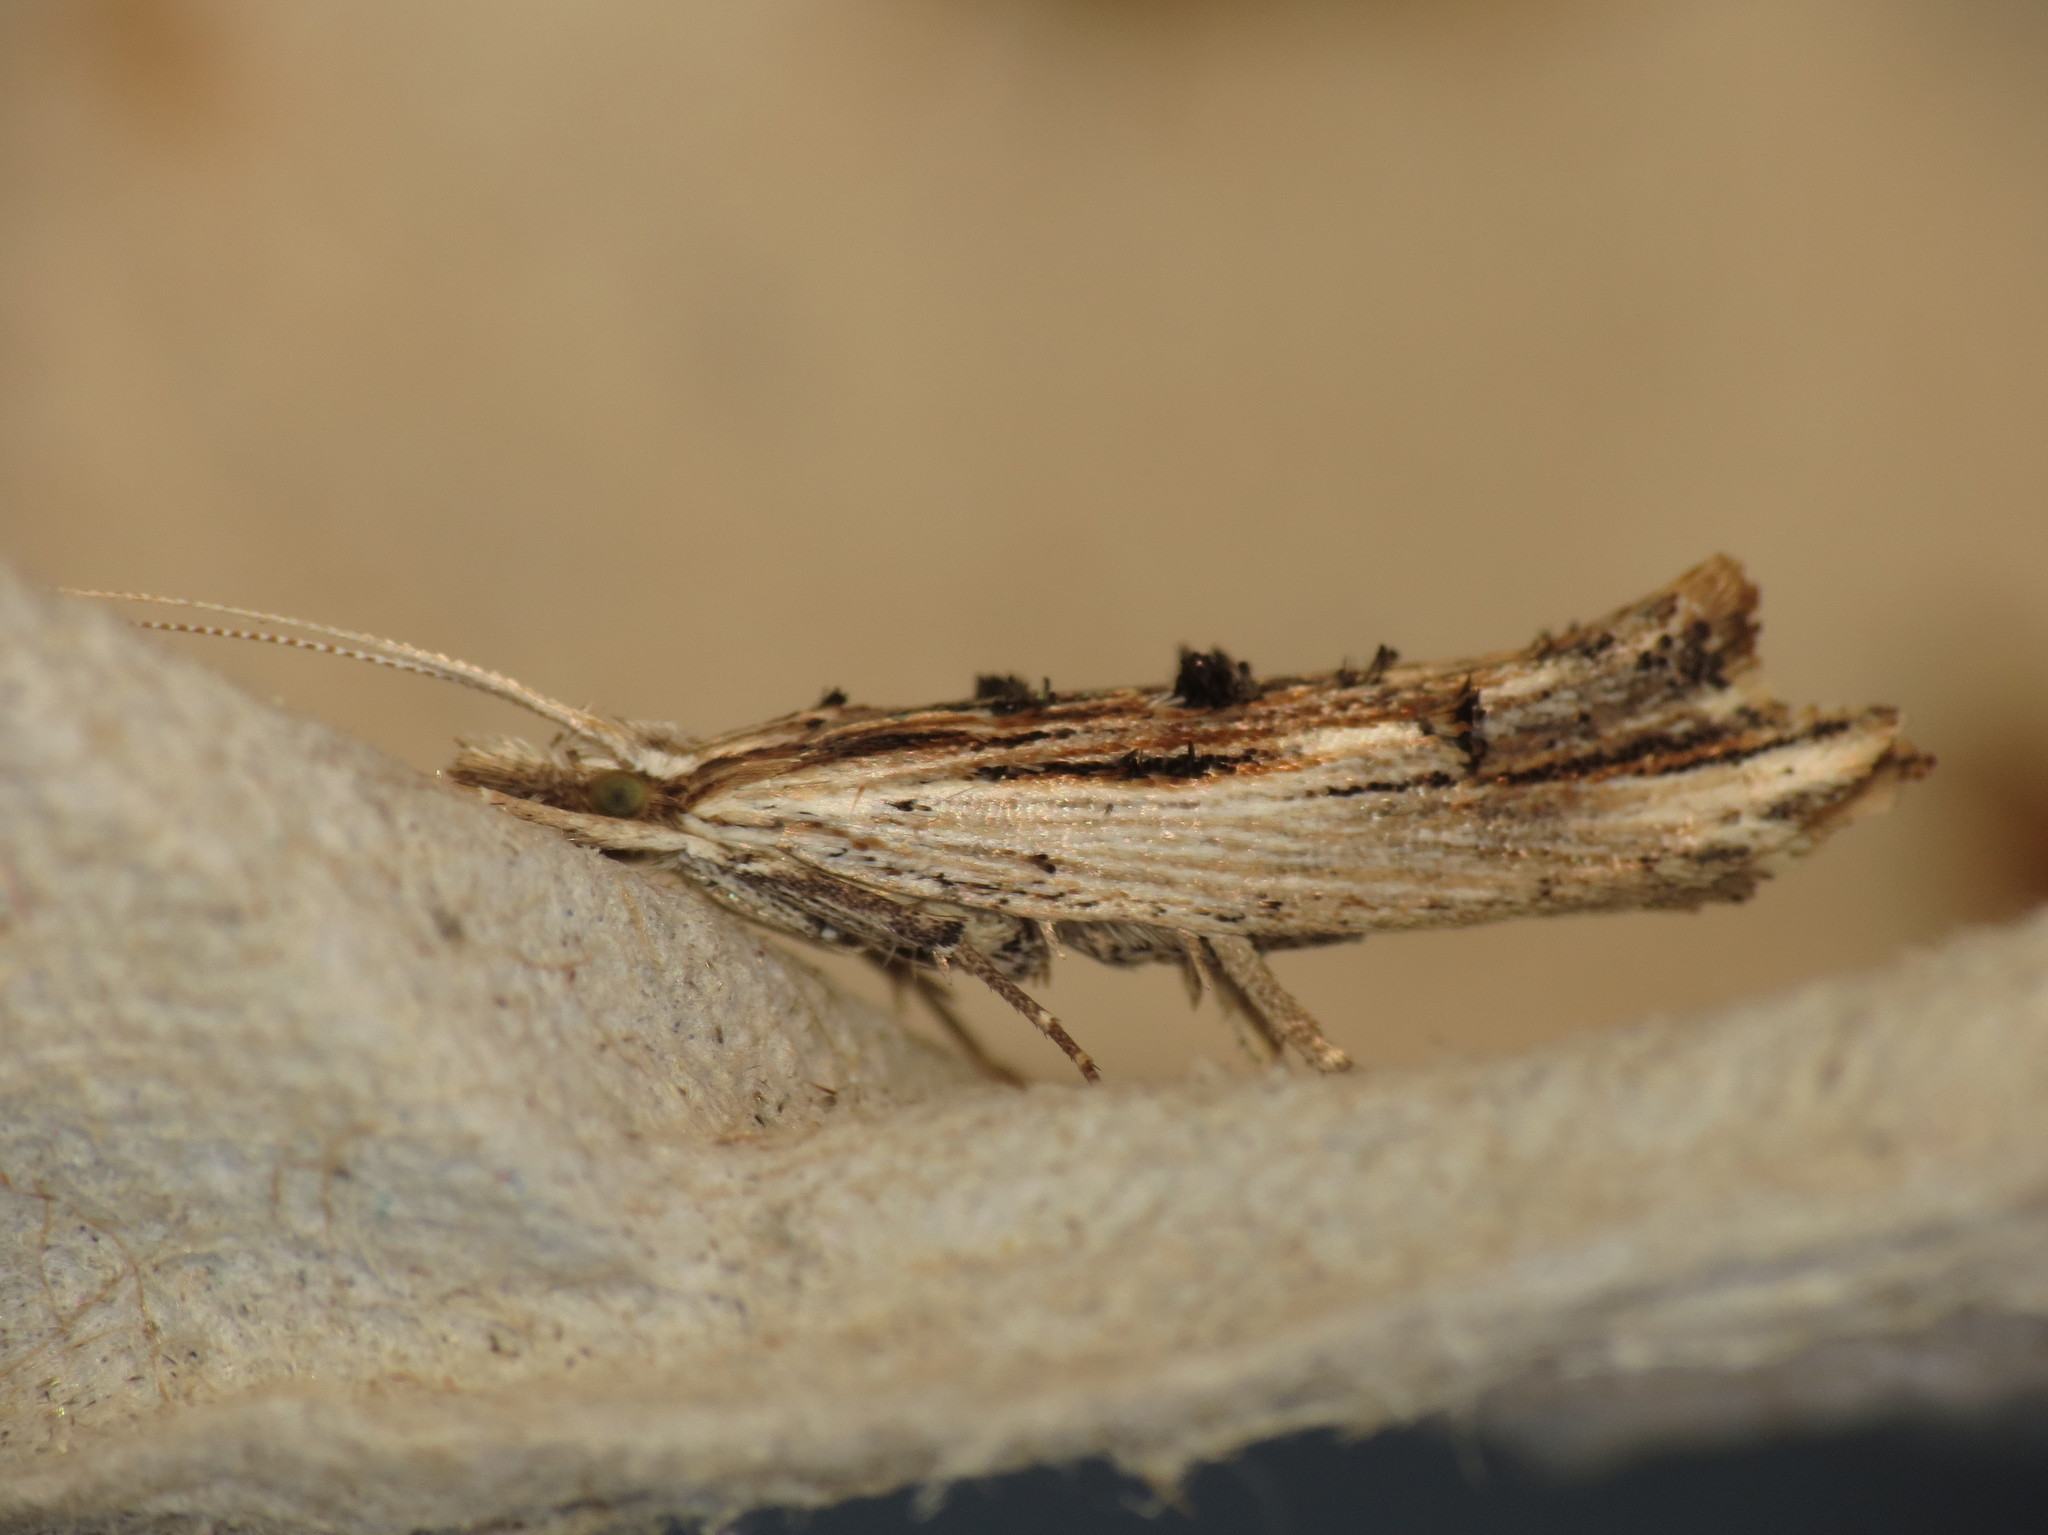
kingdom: Animalia
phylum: Arthropoda
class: Insecta
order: Lepidoptera
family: Ypsolophidae
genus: Ypsolopha
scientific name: Ypsolopha scabrella
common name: Wainscot smudge
